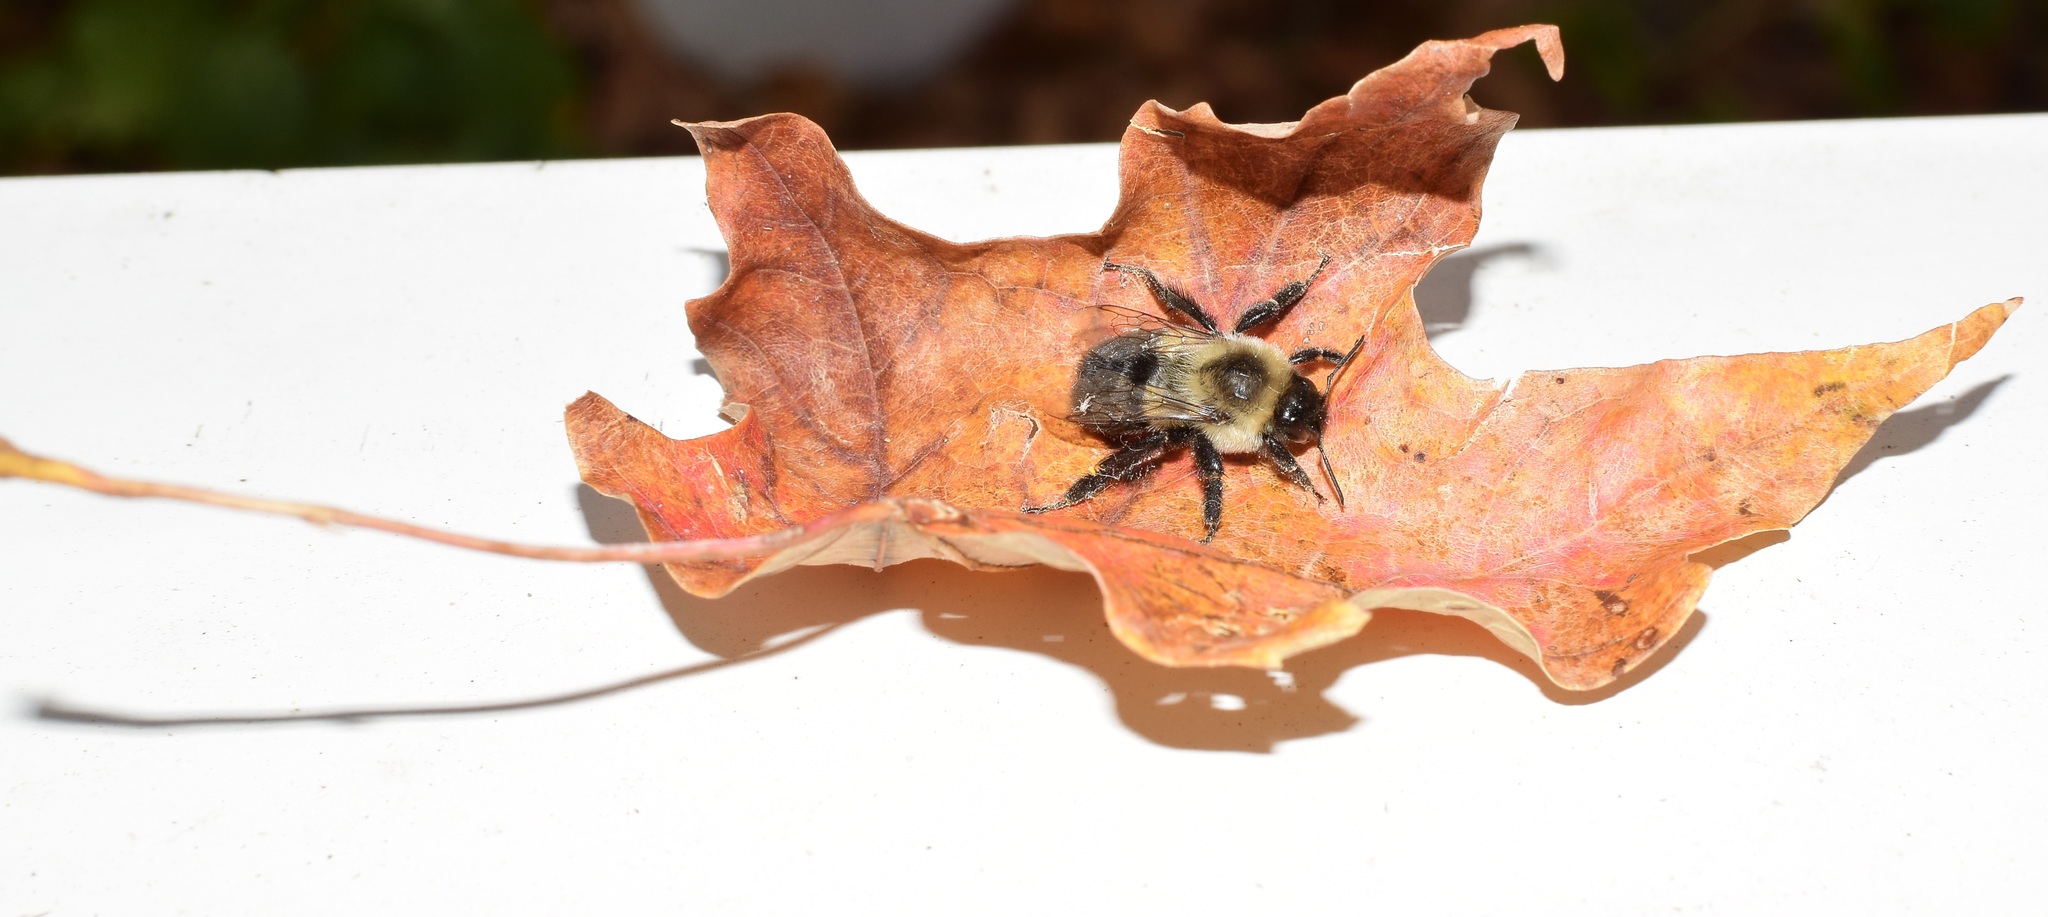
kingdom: Animalia
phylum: Arthropoda
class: Insecta
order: Hymenoptera
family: Apidae
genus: Bombus
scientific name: Bombus impatiens
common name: Common eastern bumble bee
